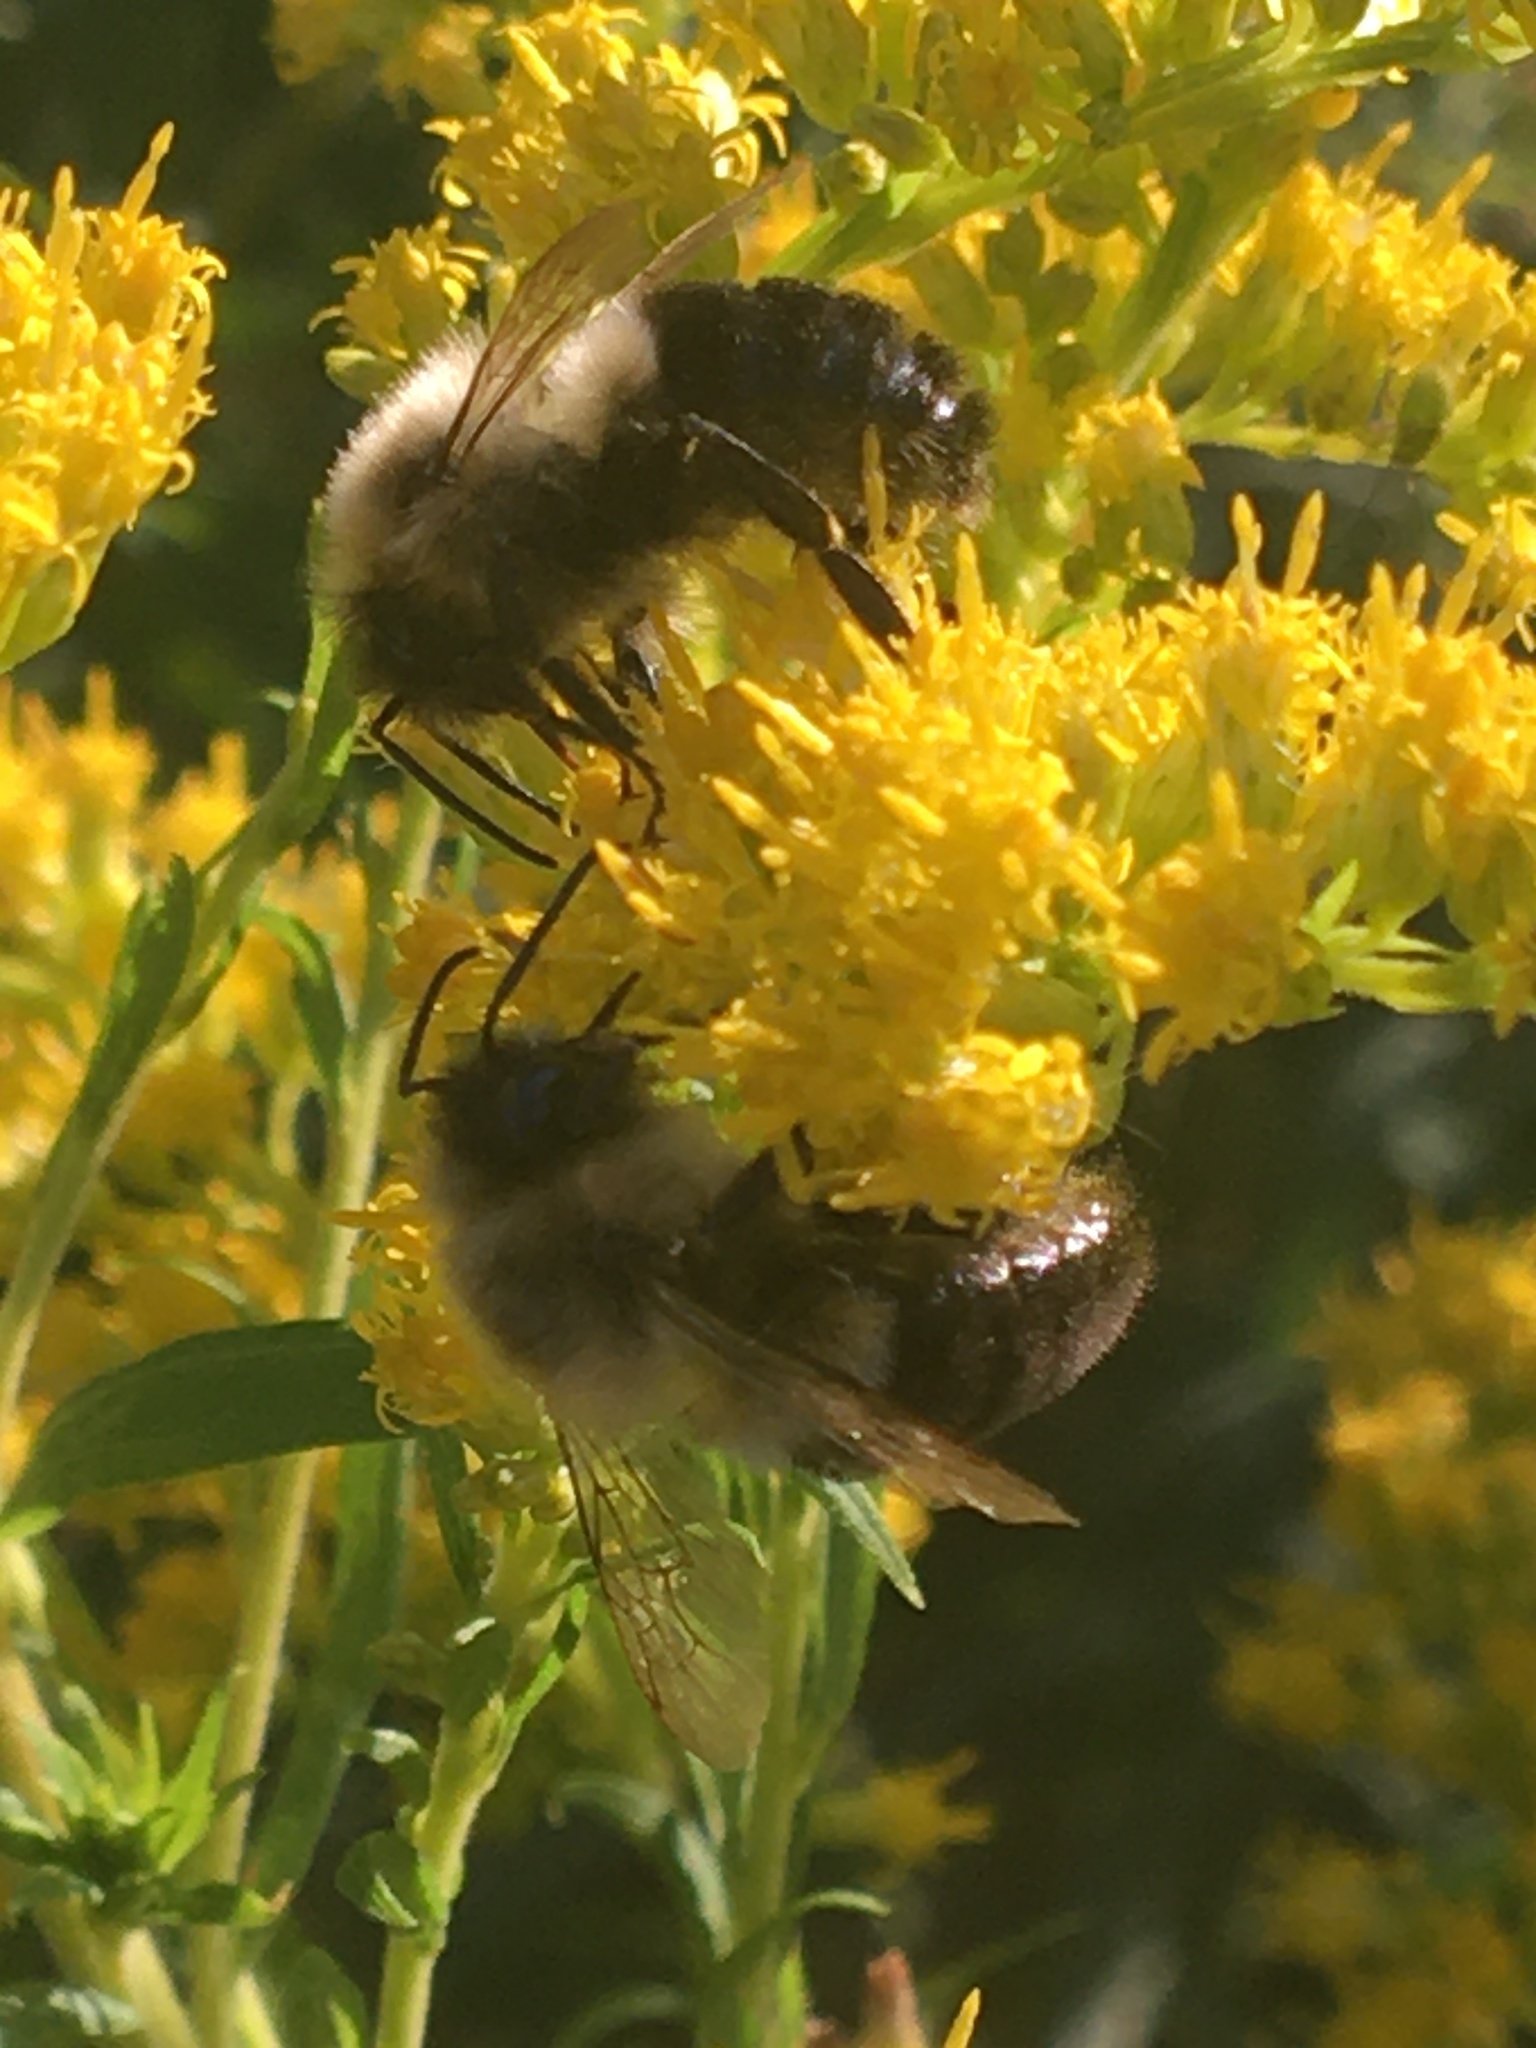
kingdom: Animalia
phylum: Arthropoda
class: Insecta
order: Hymenoptera
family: Apidae
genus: Bombus
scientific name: Bombus impatiens
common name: Common eastern bumble bee
